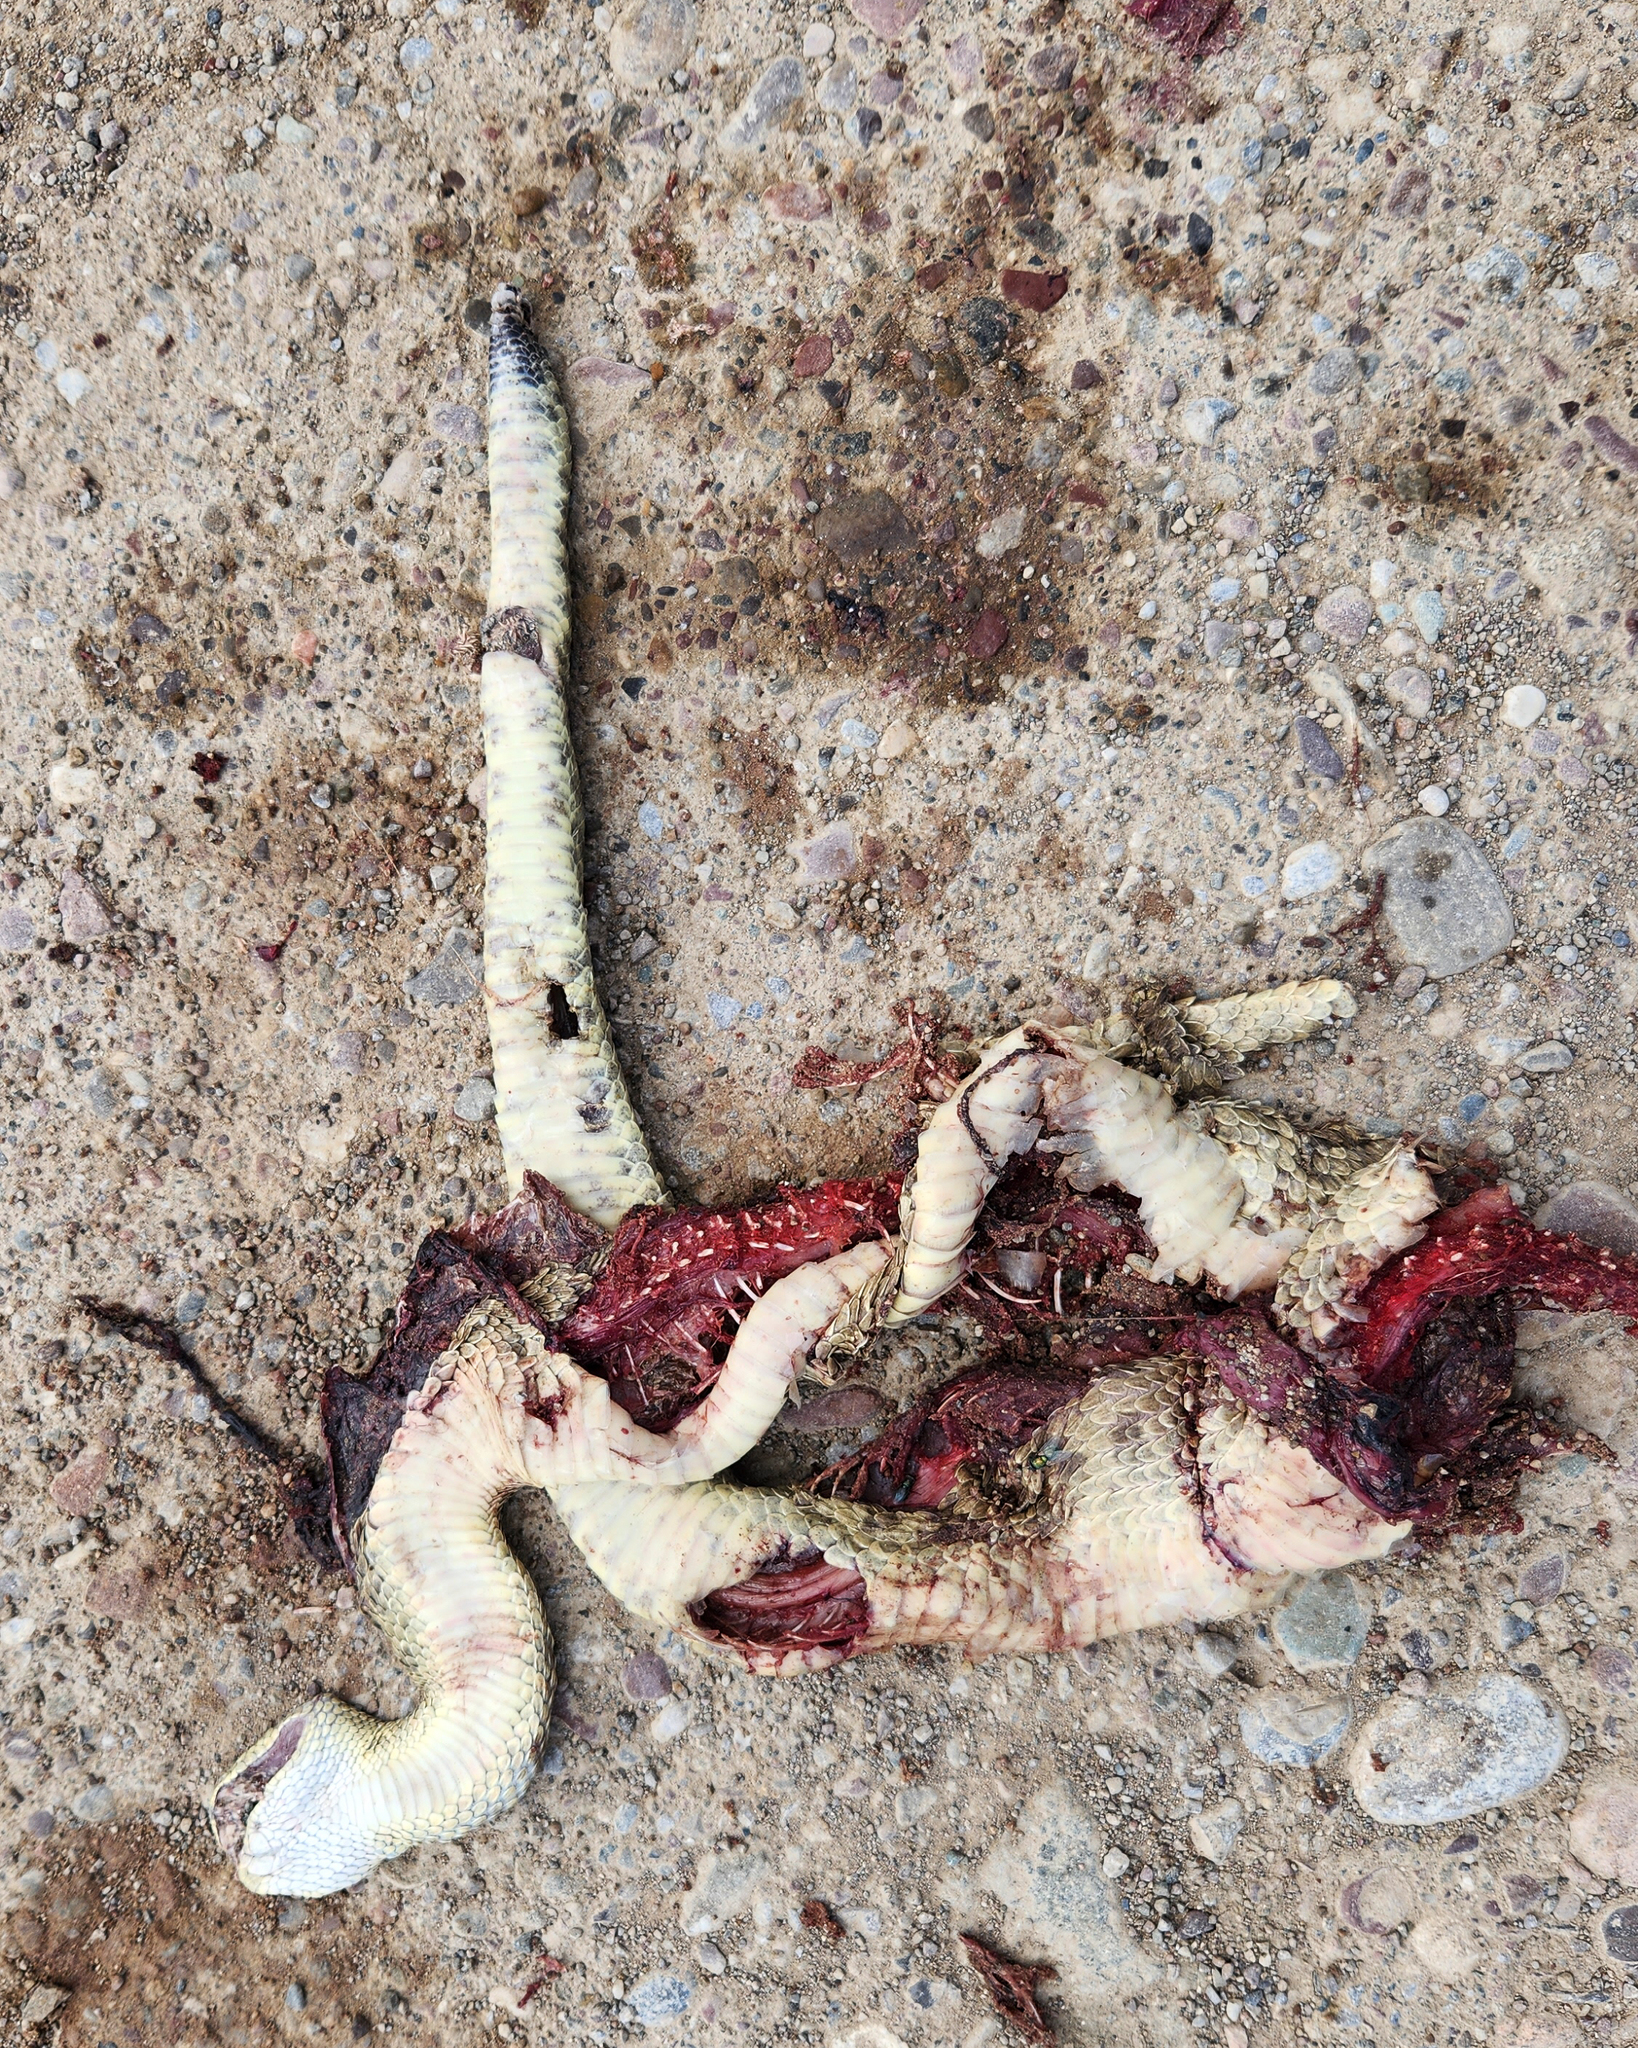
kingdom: Animalia
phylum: Chordata
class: Squamata
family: Viperidae
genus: Crotalus
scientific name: Crotalus viridis
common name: Prairie rattlesnake
